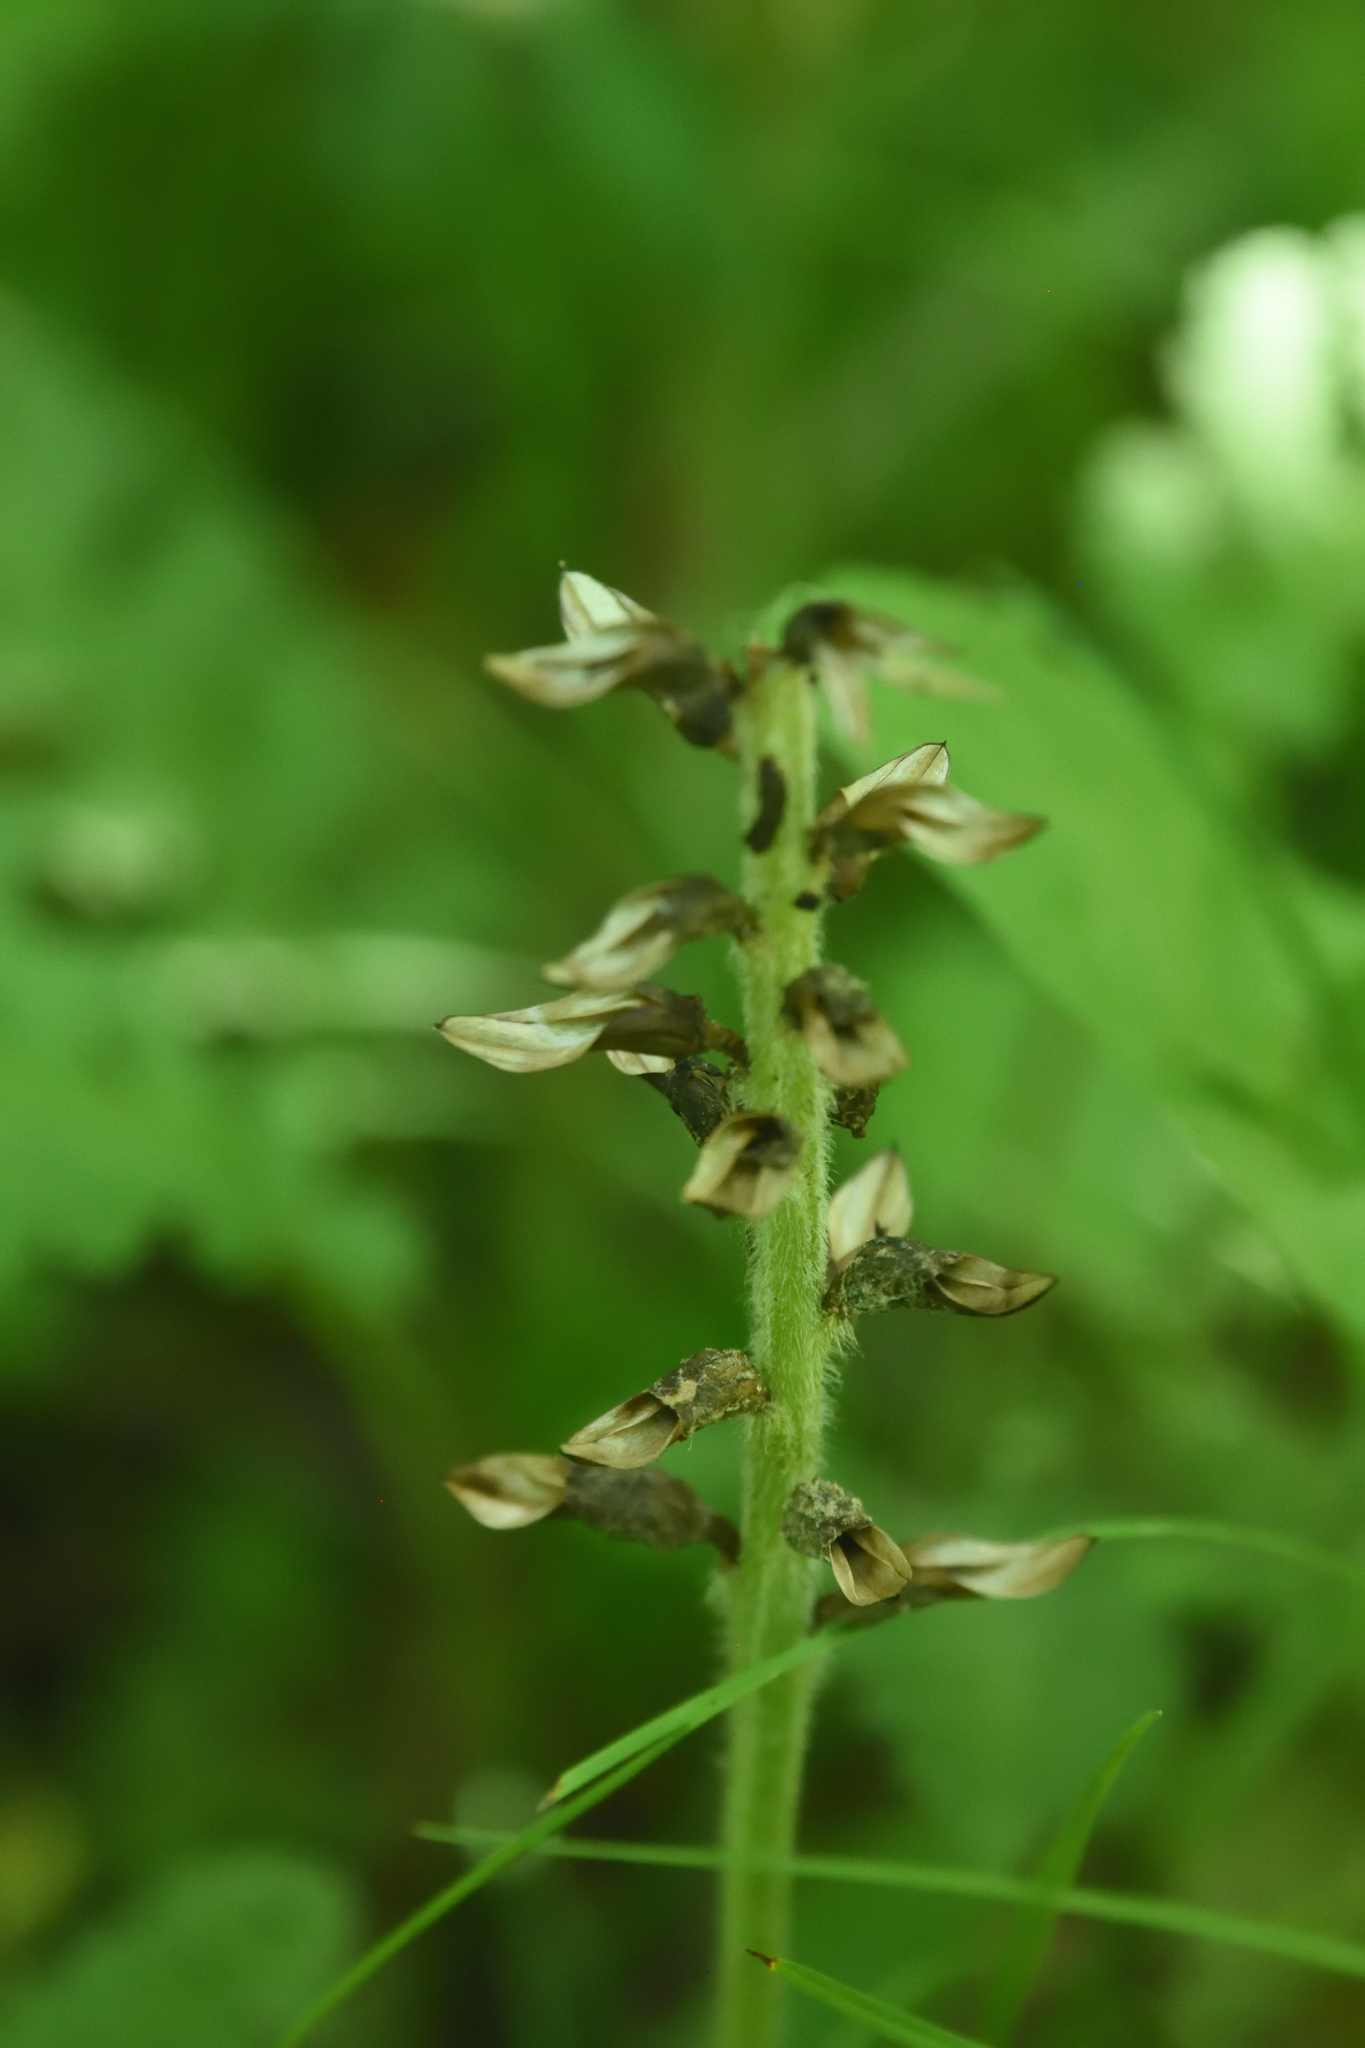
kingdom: Plantae
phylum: Tracheophyta
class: Magnoliopsida
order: Lamiales
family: Orobanchaceae
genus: Pedicularis
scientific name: Pedicularis canadensis
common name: Early lousewort
